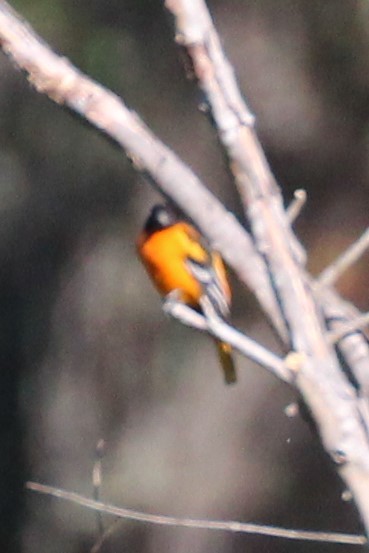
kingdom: Animalia
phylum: Chordata
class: Aves
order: Passeriformes
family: Icteridae
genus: Icterus
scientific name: Icterus galbula
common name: Baltimore oriole
